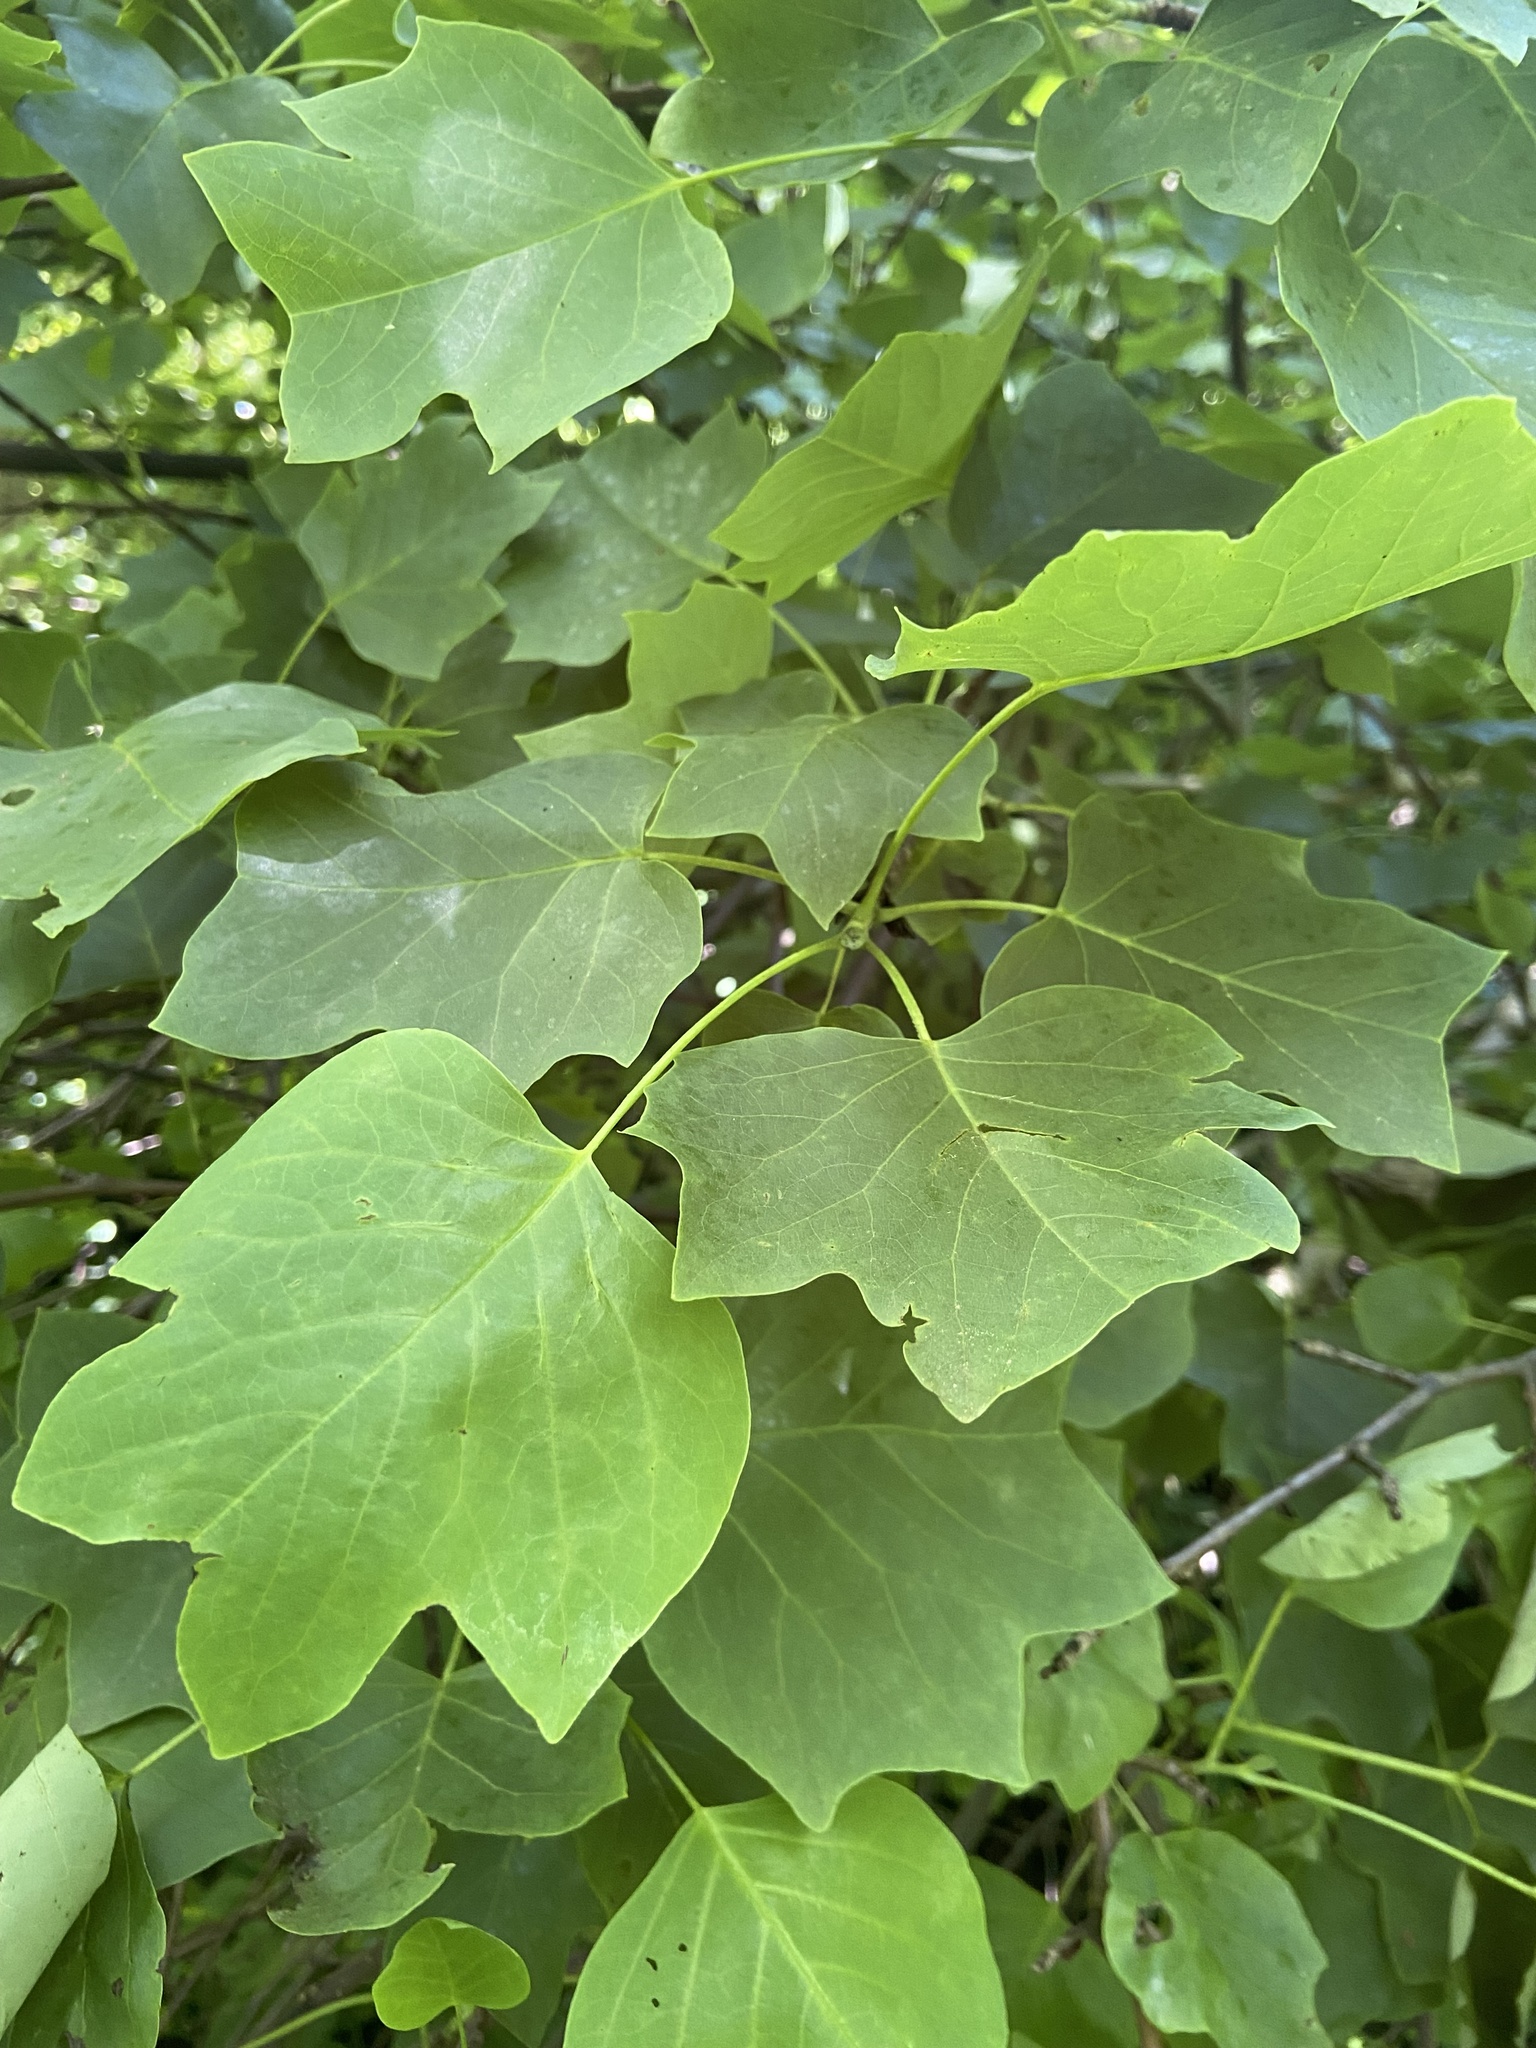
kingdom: Plantae
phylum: Tracheophyta
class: Magnoliopsida
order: Magnoliales
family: Magnoliaceae
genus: Liriodendron
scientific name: Liriodendron tulipifera
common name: Tulip tree
